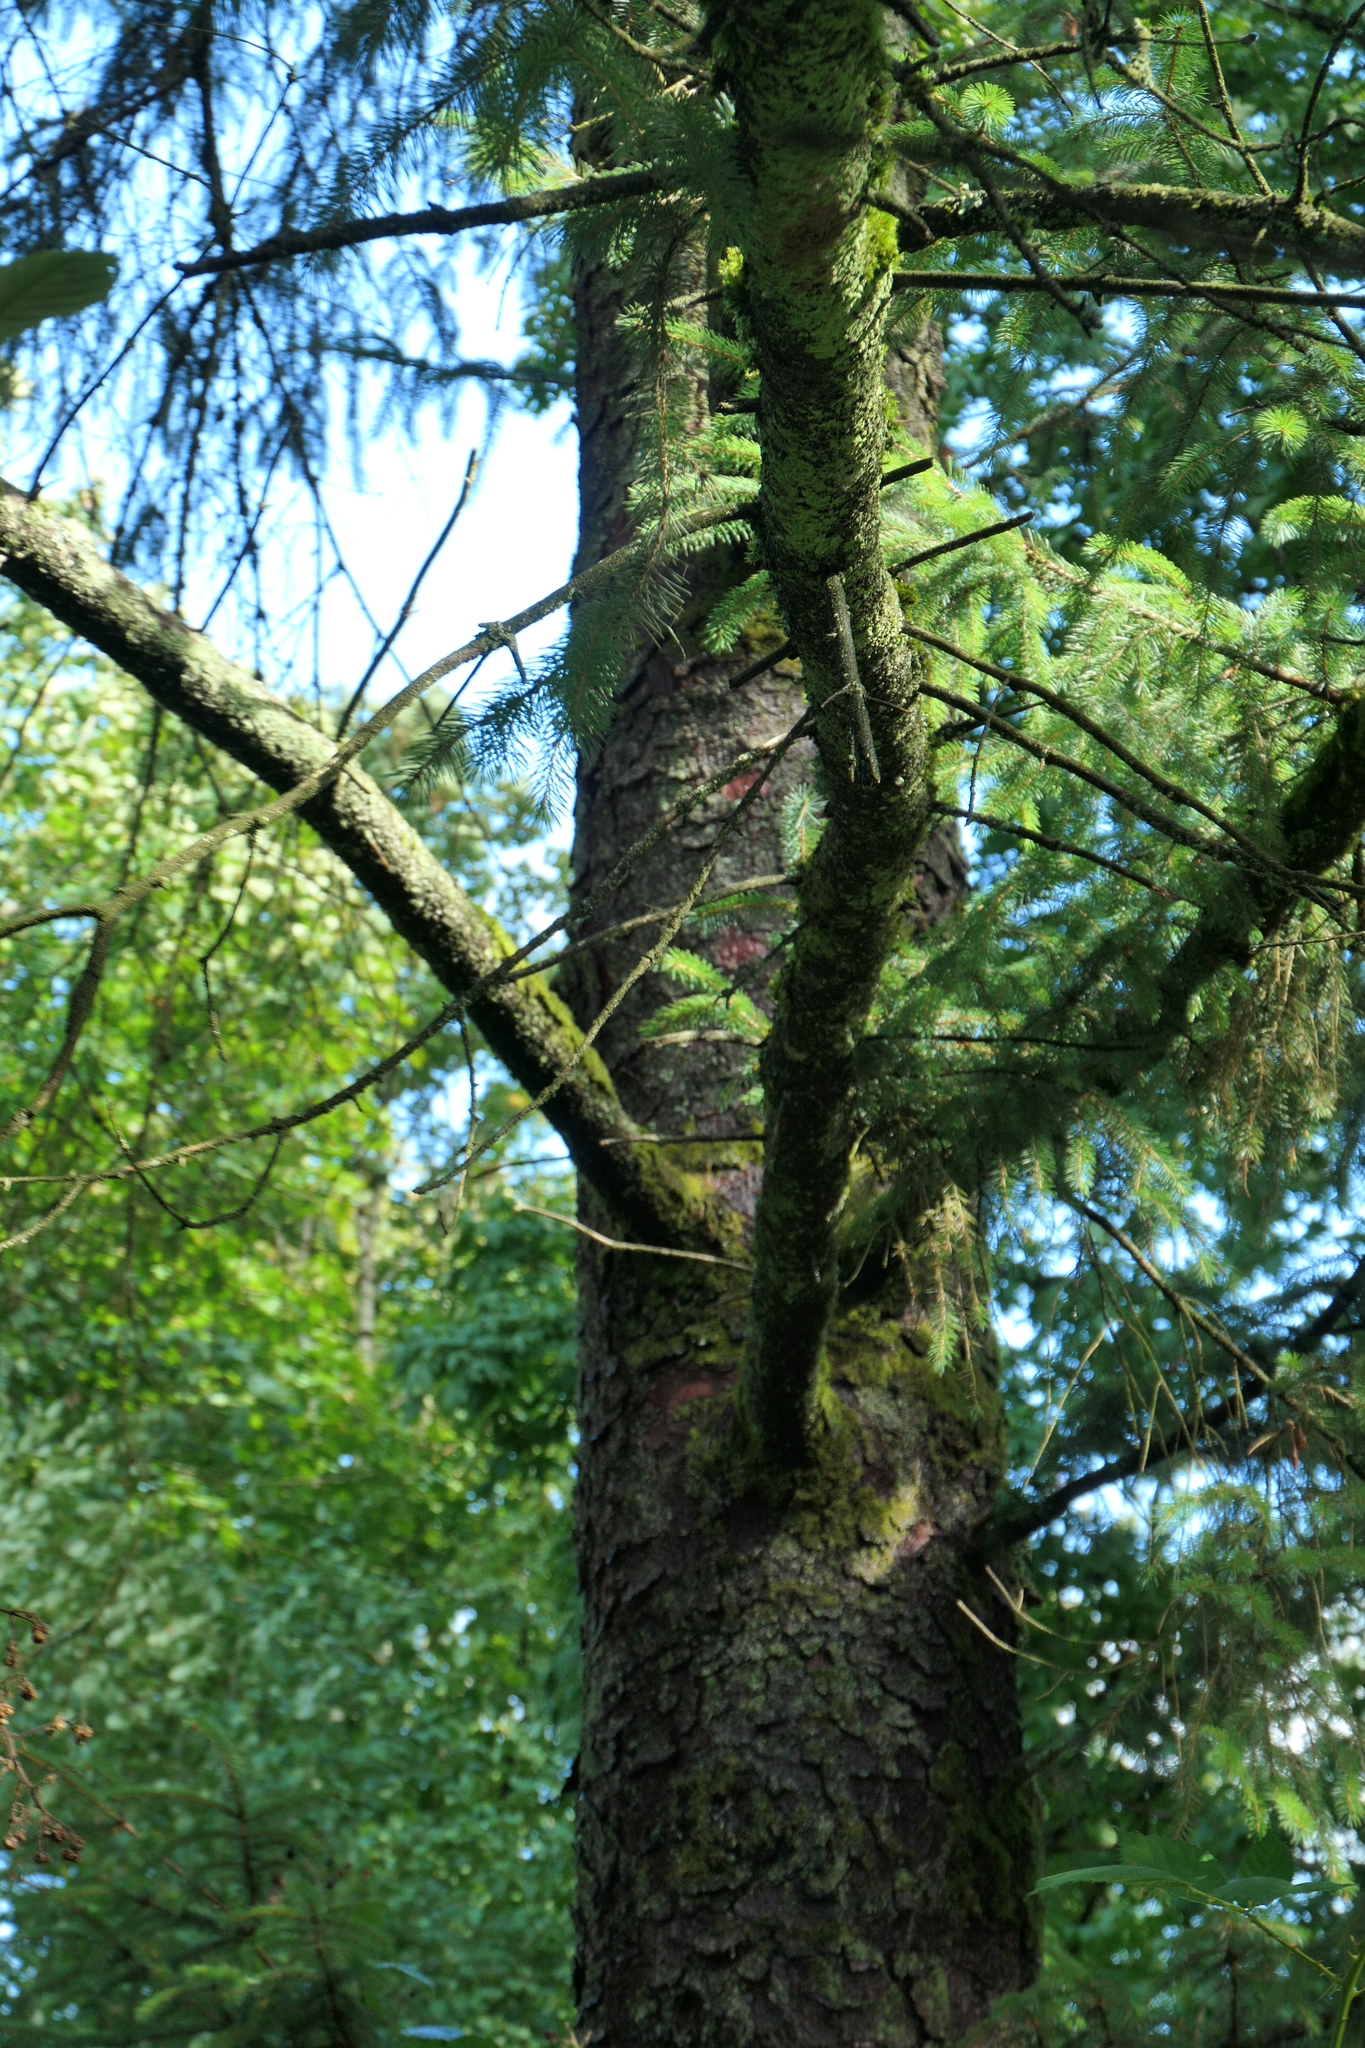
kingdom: Plantae
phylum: Tracheophyta
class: Pinopsida
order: Pinales
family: Pinaceae
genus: Picea
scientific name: Picea sitchensis
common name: Sitka spruce
